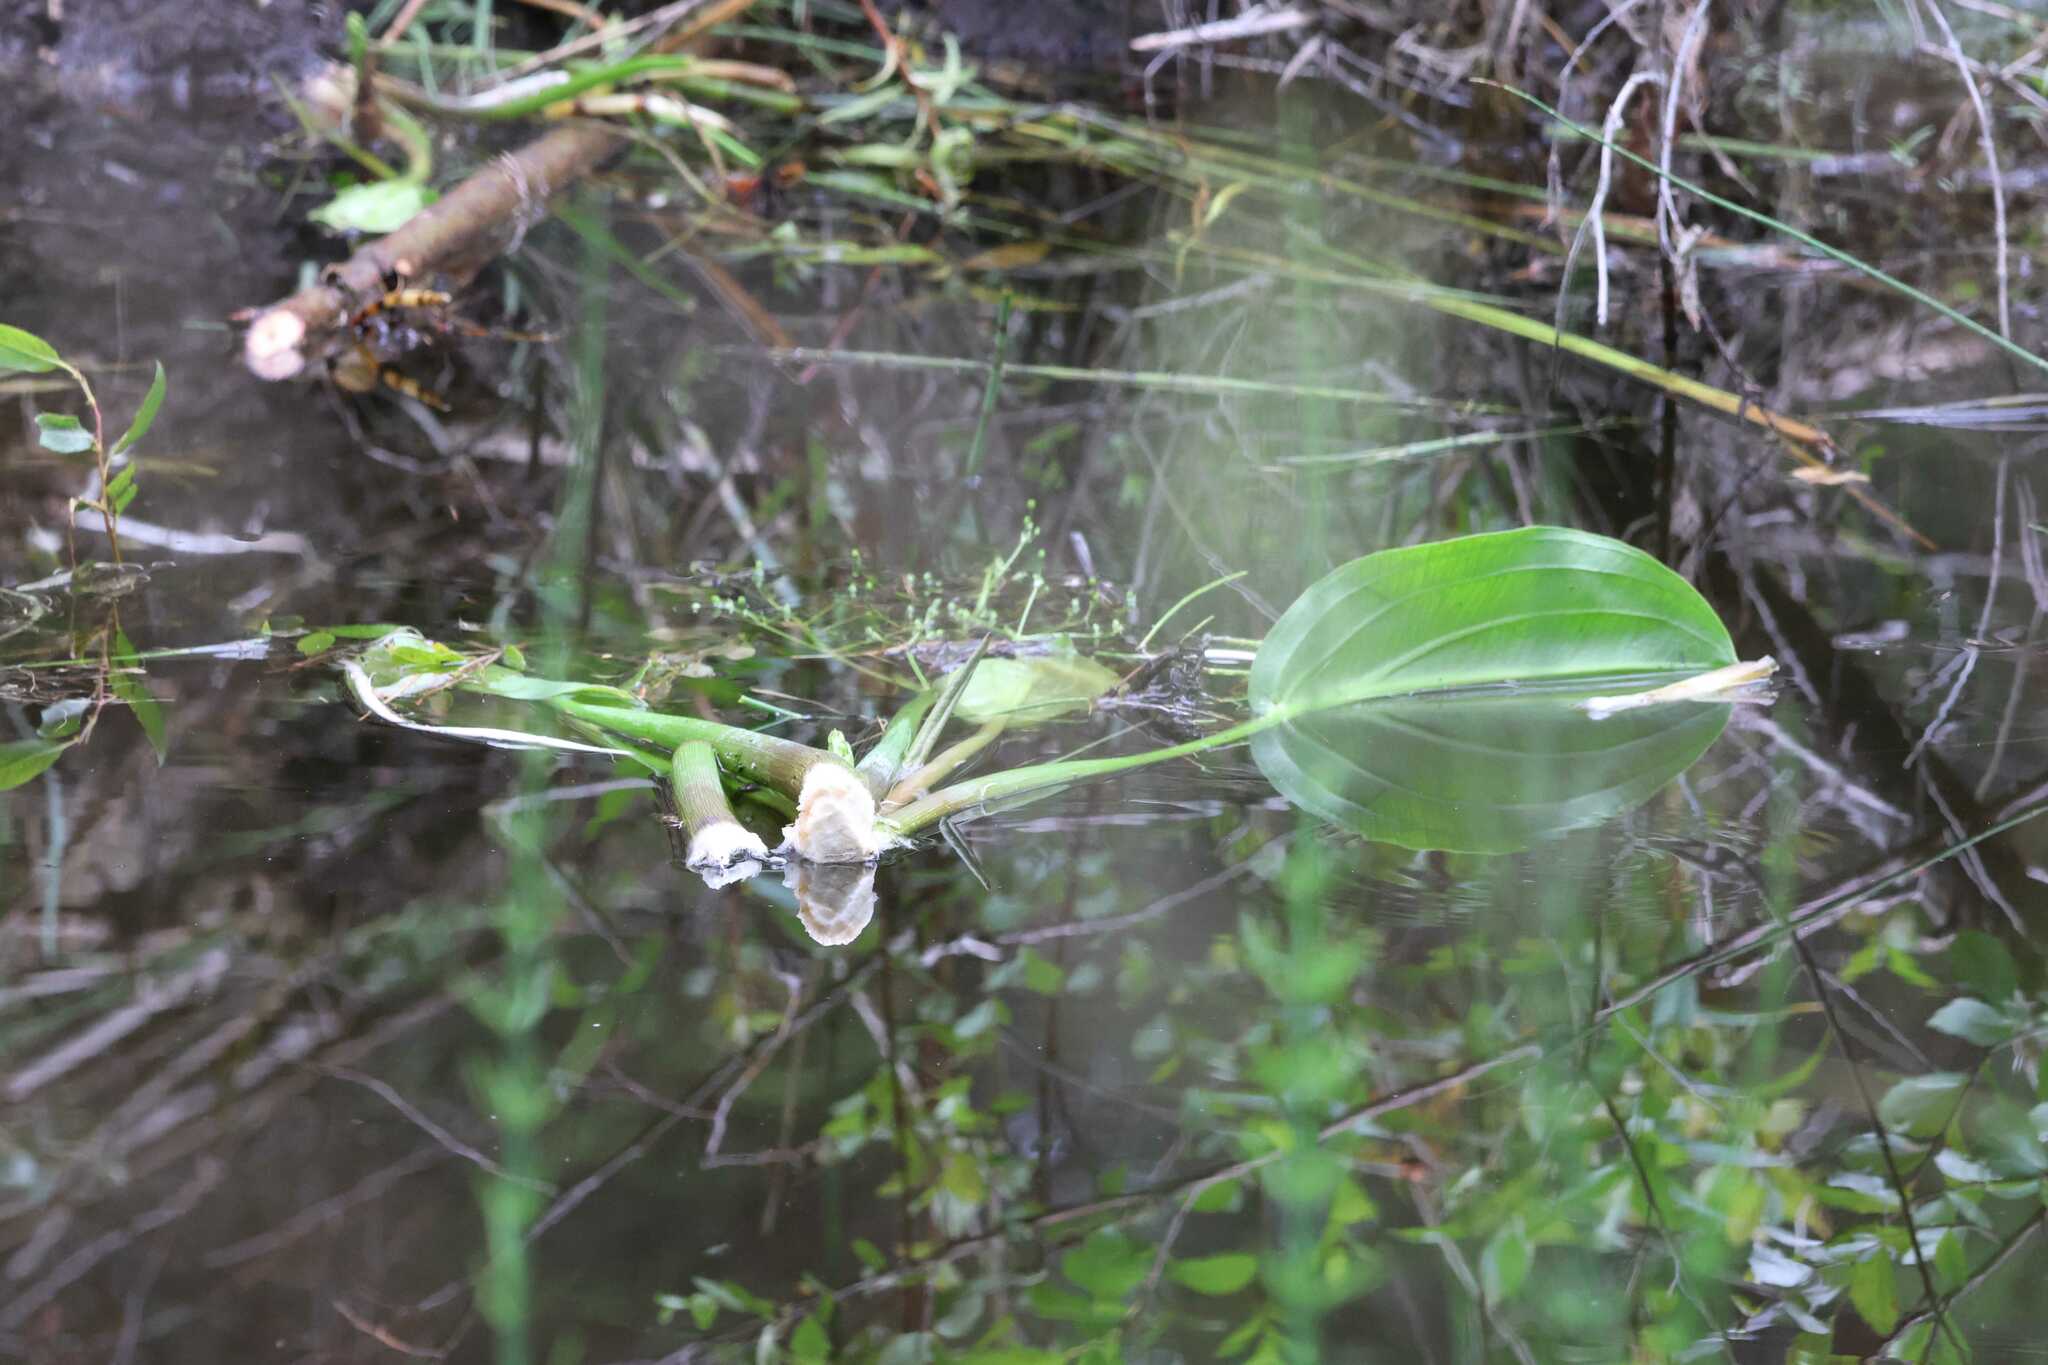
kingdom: Plantae
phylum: Tracheophyta
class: Liliopsida
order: Alismatales
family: Alismataceae
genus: Alisma
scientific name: Alisma triviale
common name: Northern water-plantain
